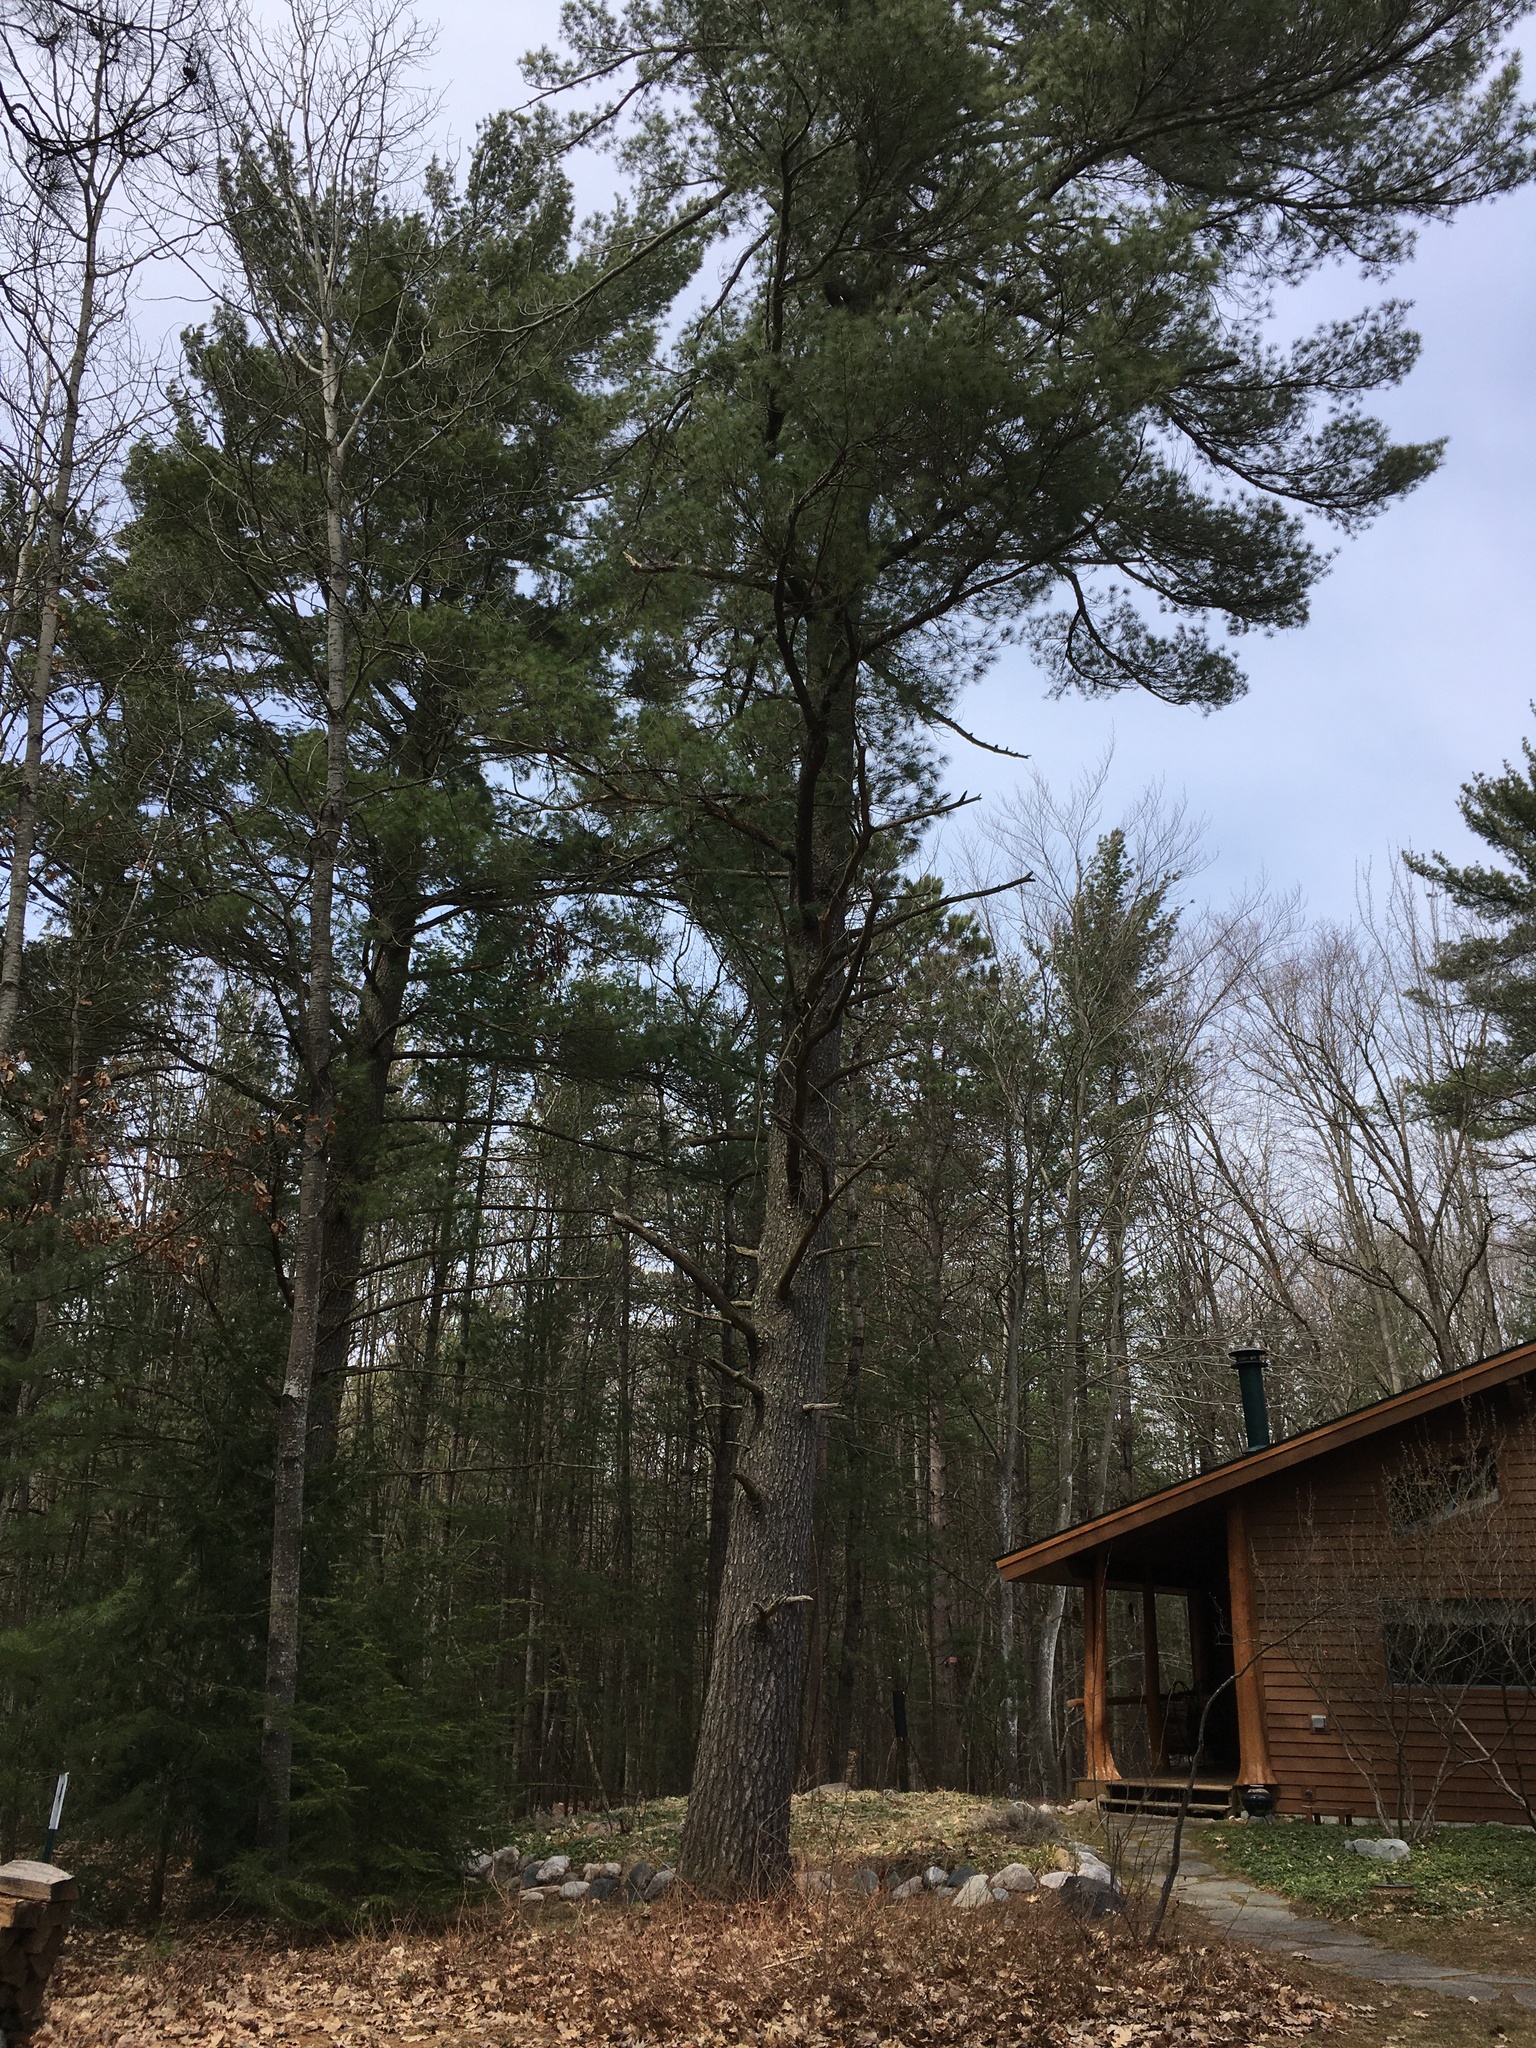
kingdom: Plantae
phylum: Tracheophyta
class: Pinopsida
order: Pinales
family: Pinaceae
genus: Pinus
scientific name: Pinus strobus
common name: Weymouth pine
